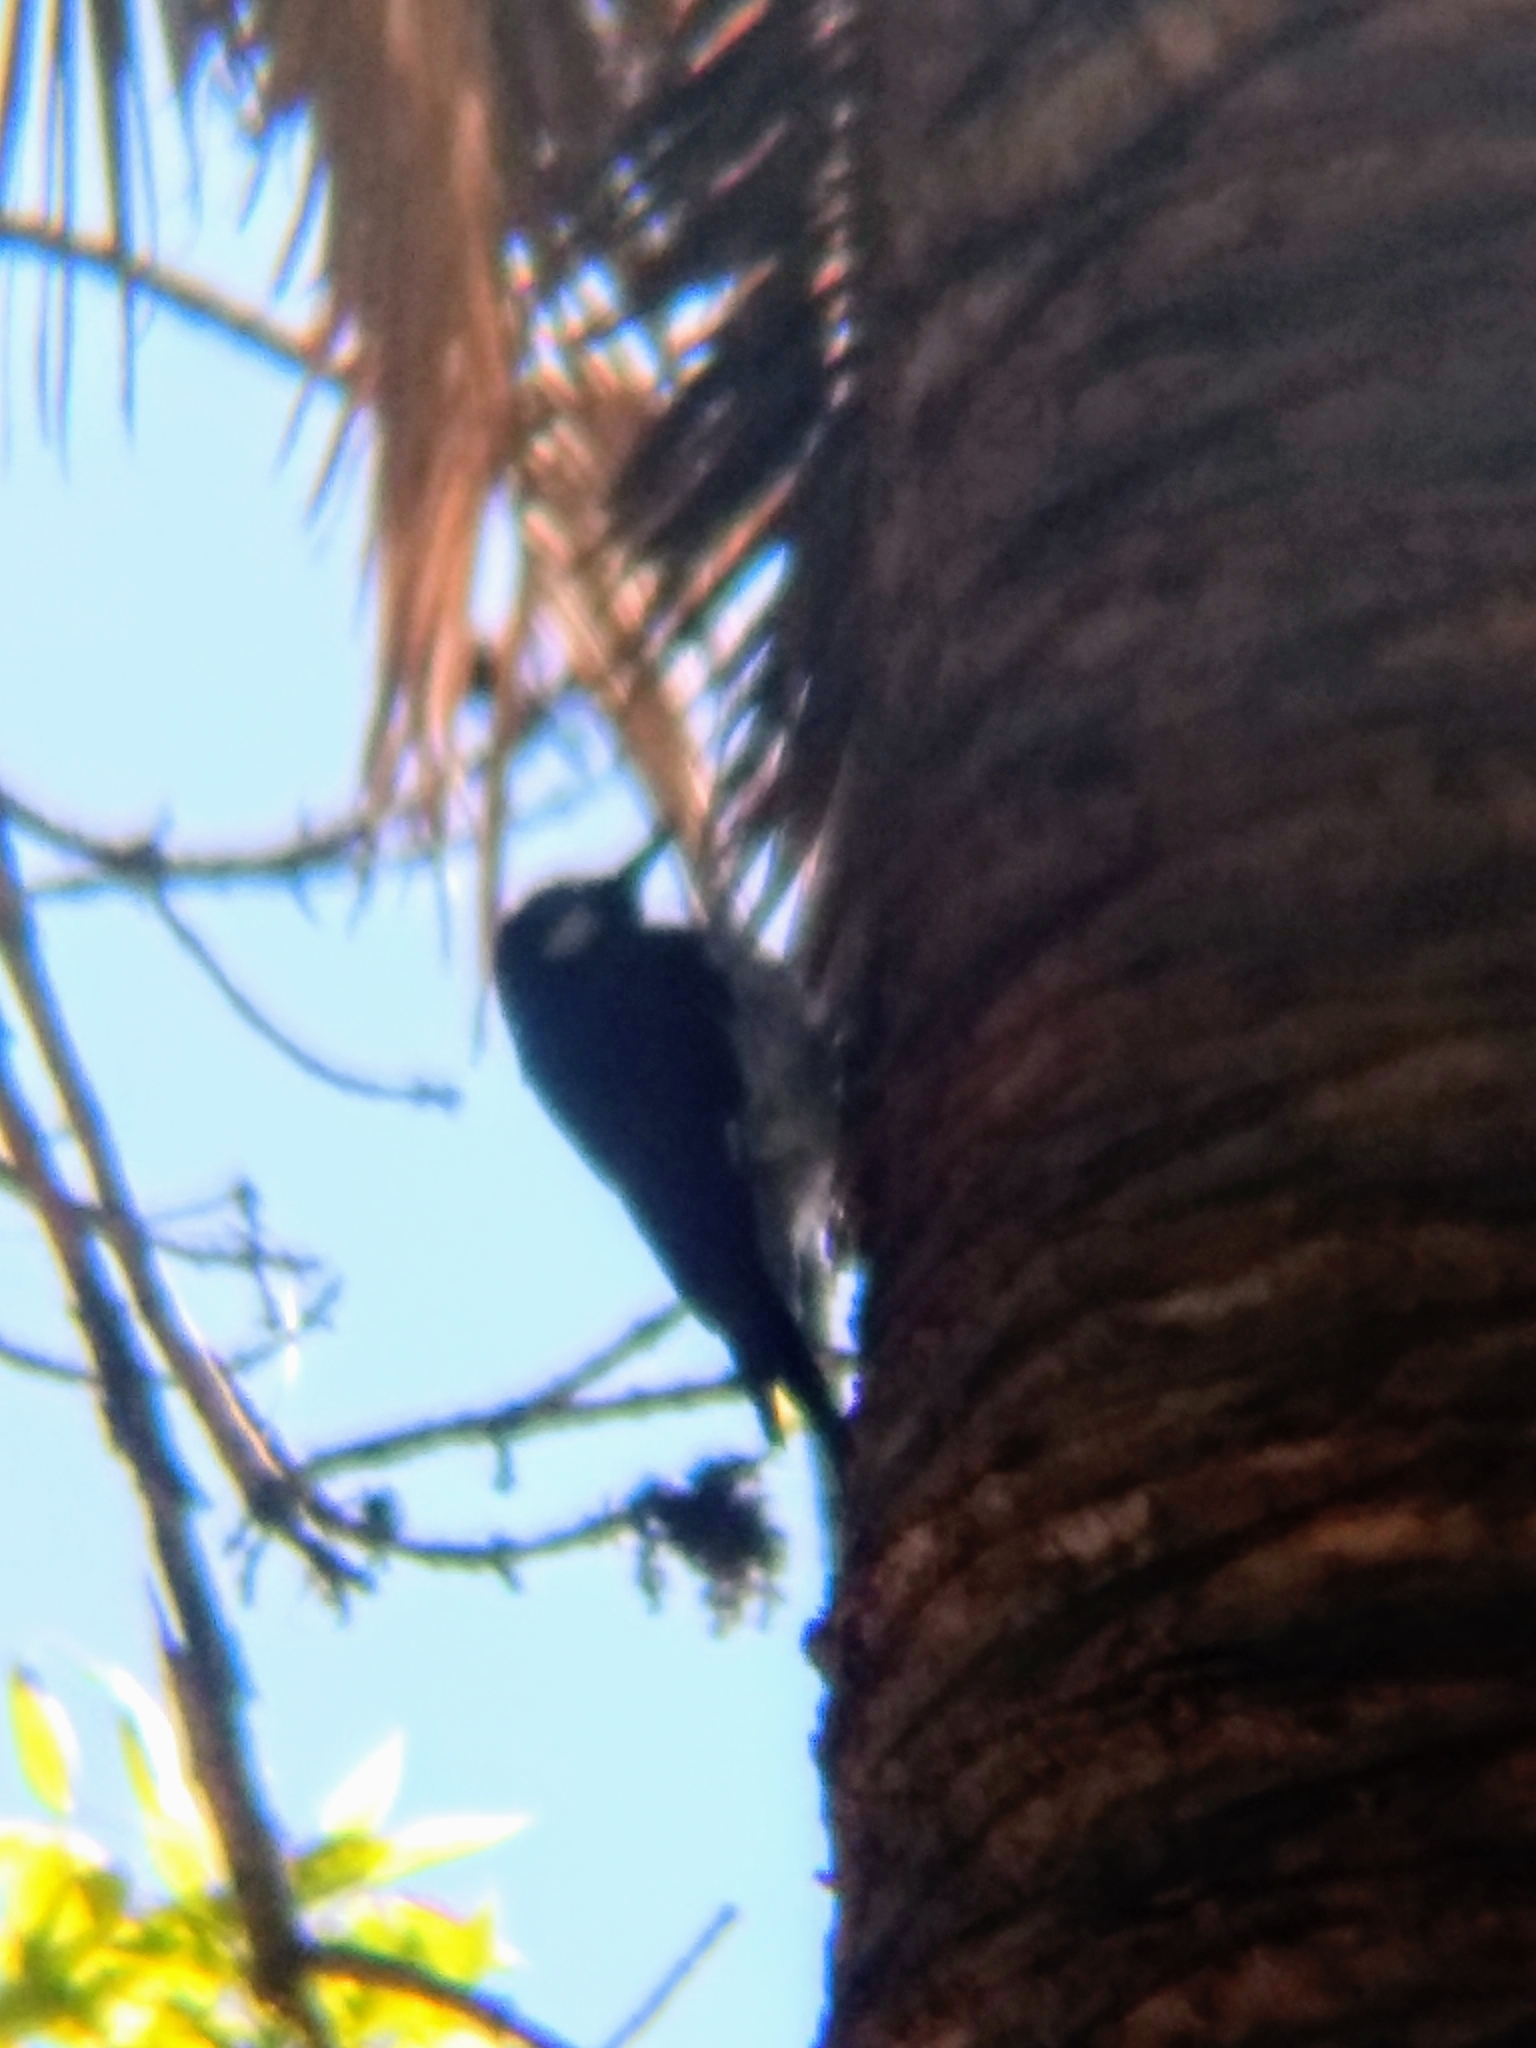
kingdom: Animalia
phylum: Chordata
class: Aves
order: Piciformes
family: Picidae
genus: Melanerpes
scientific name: Melanerpes formicivorus
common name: Acorn woodpecker
